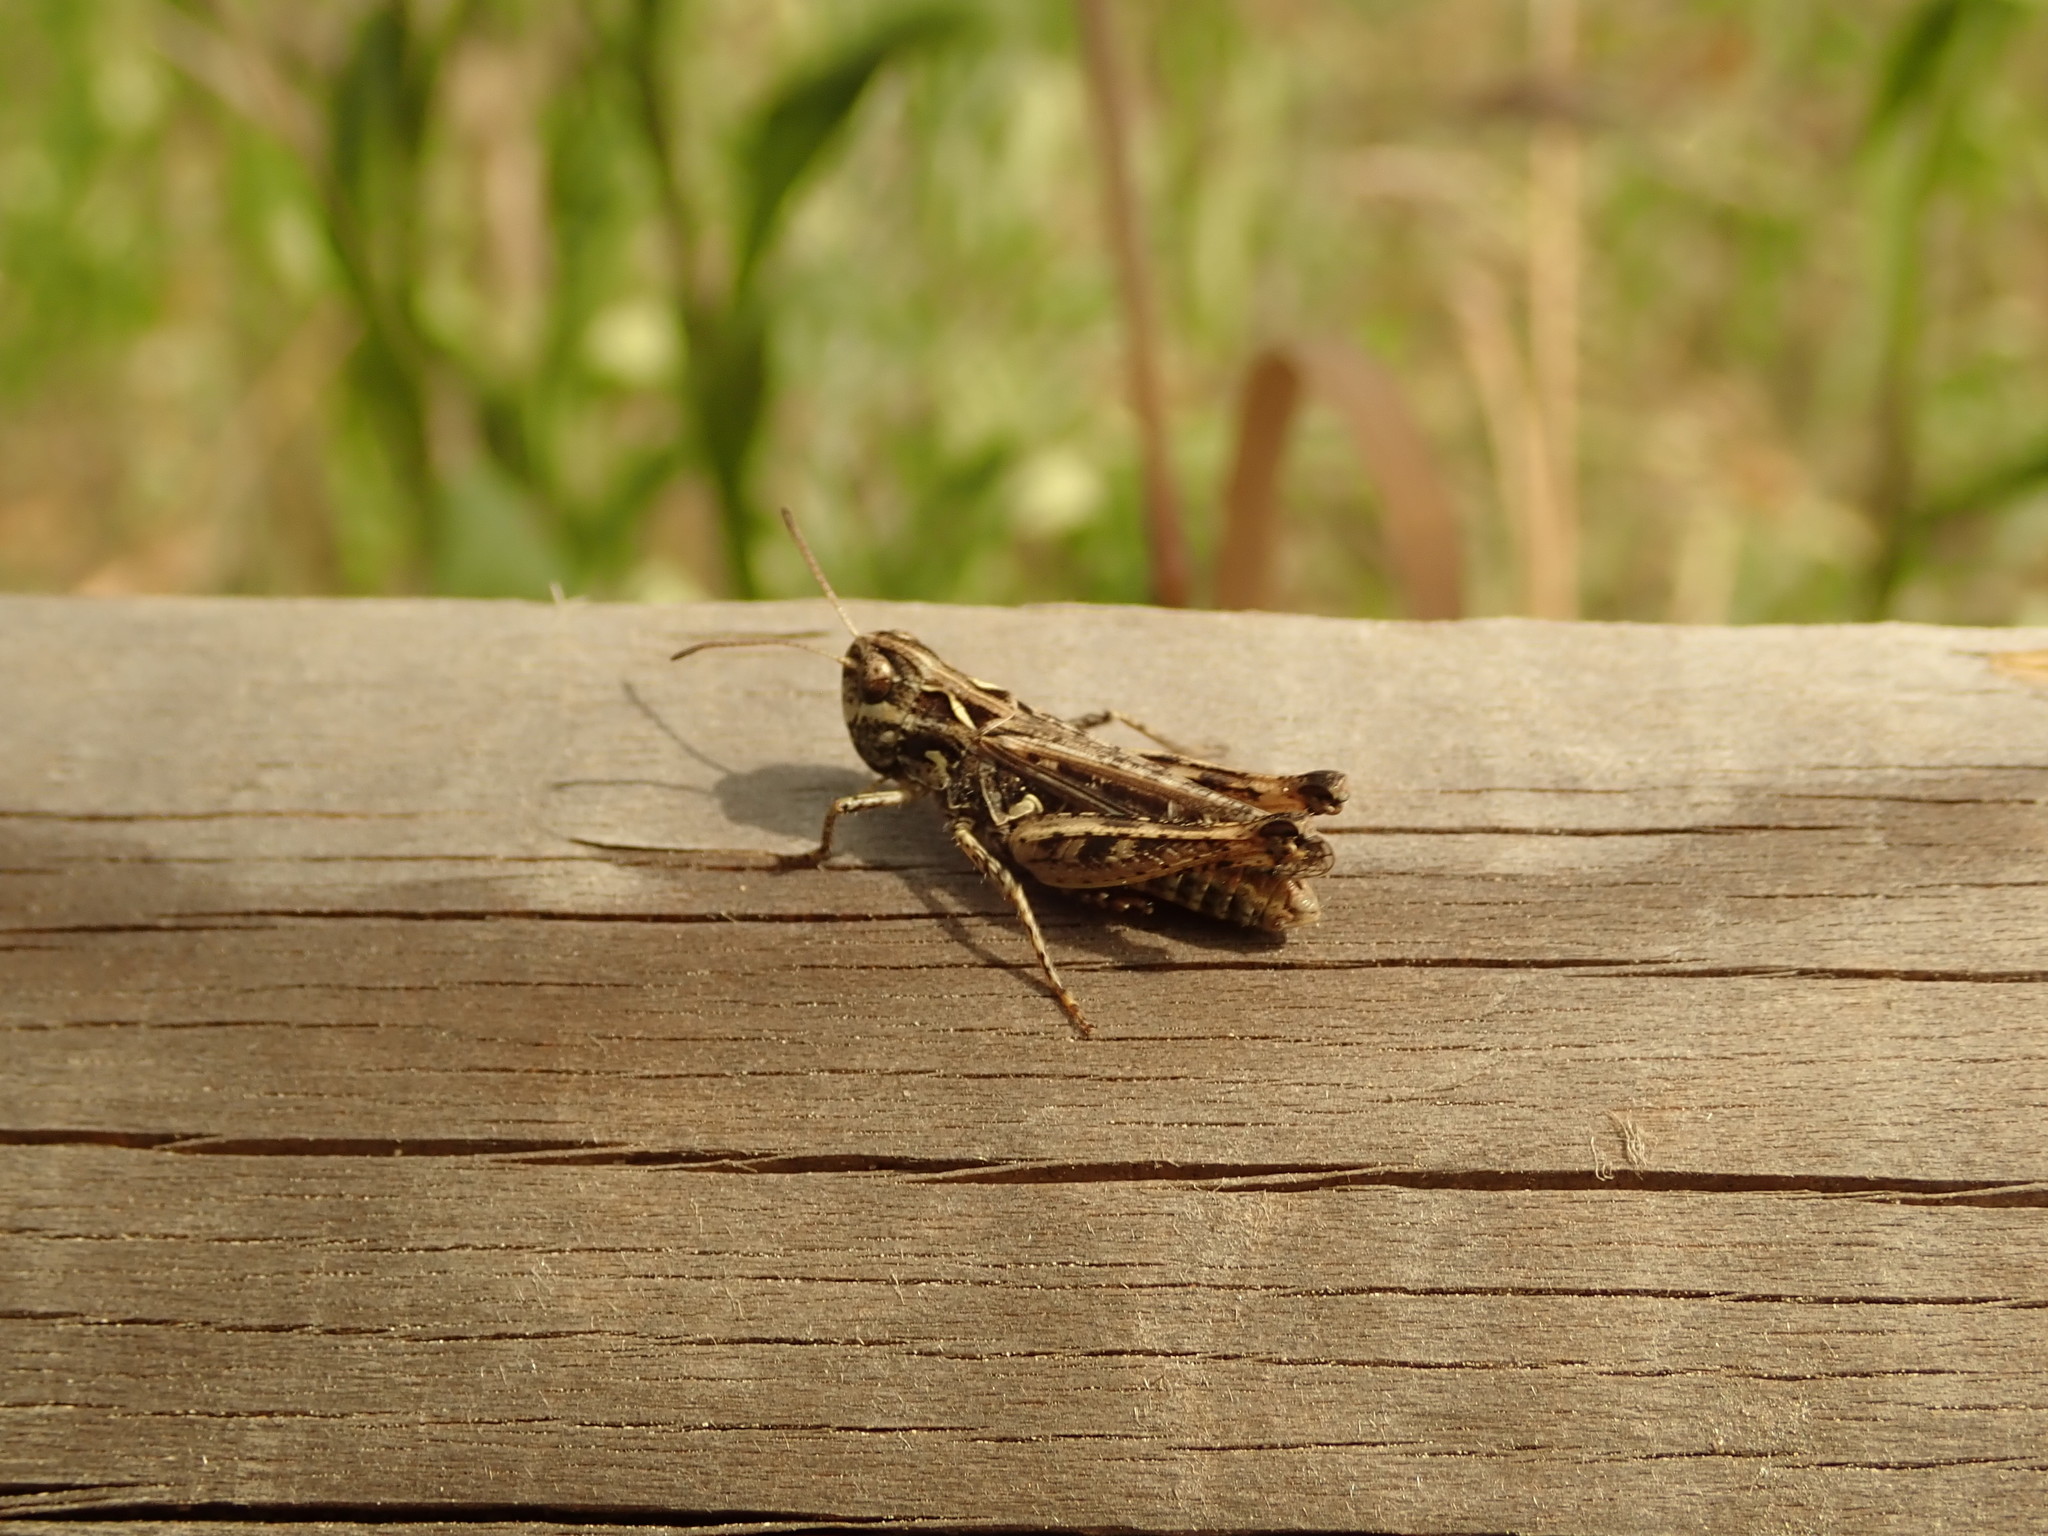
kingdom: Animalia
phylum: Arthropoda
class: Insecta
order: Orthoptera
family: Acrididae
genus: Myrmeleotettix
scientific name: Myrmeleotettix maculatus
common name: Mottled grasshopper
